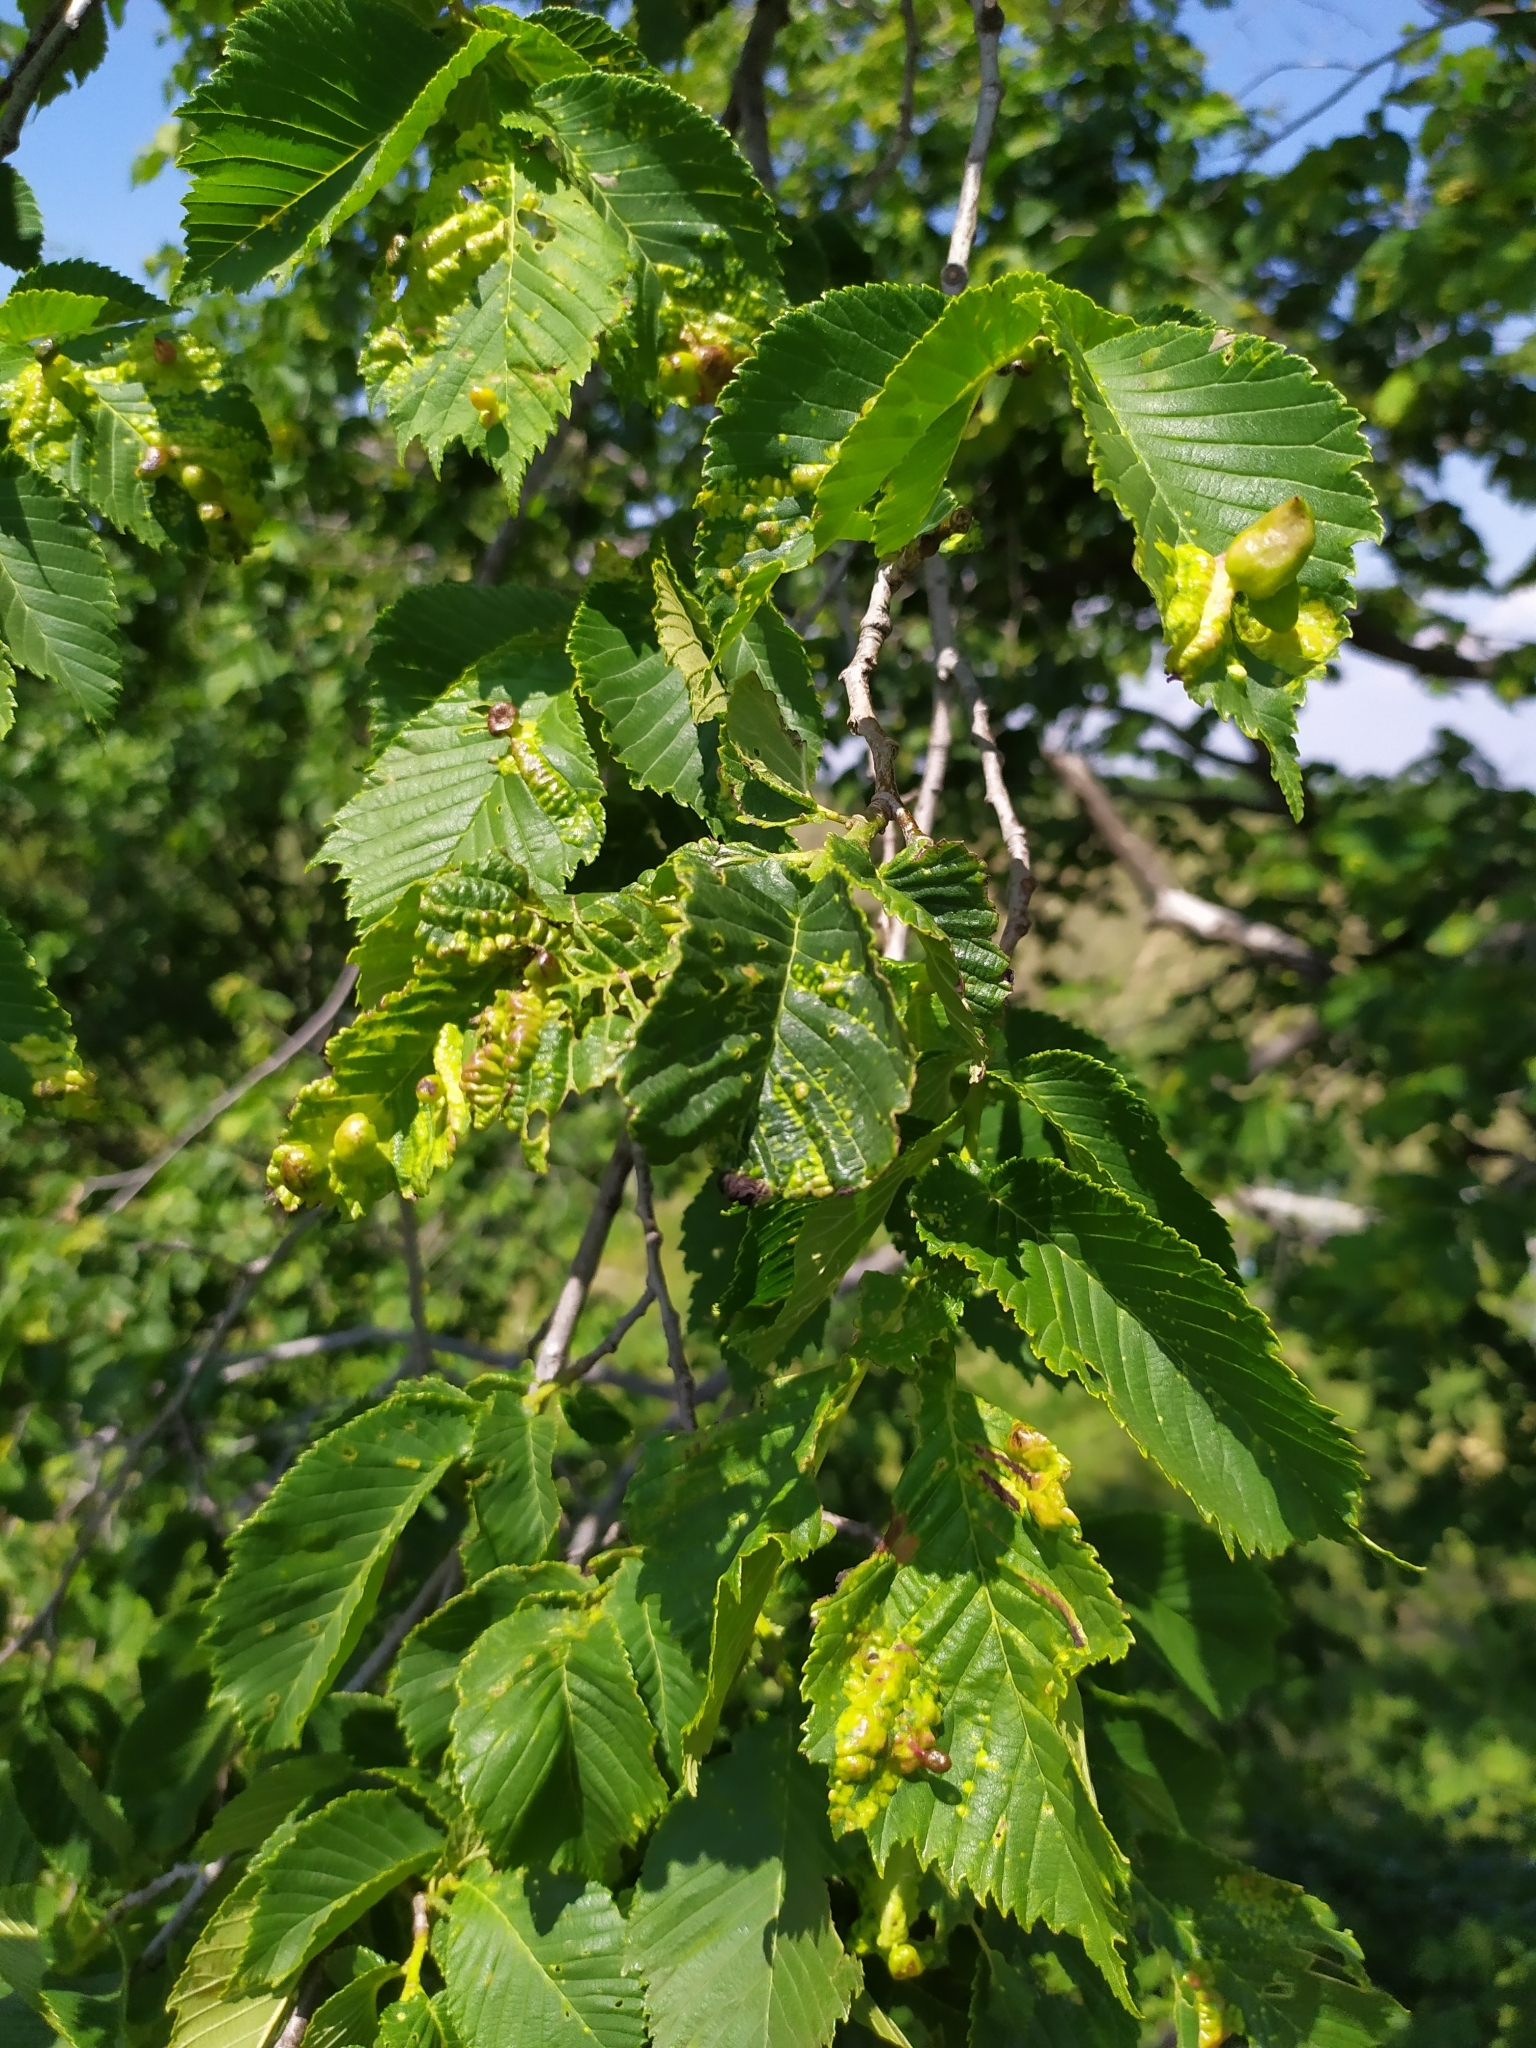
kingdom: Animalia
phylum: Arthropoda
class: Insecta
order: Hemiptera
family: Aphididae
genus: Tetraneura
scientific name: Tetraneura ulmi
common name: Aphid
